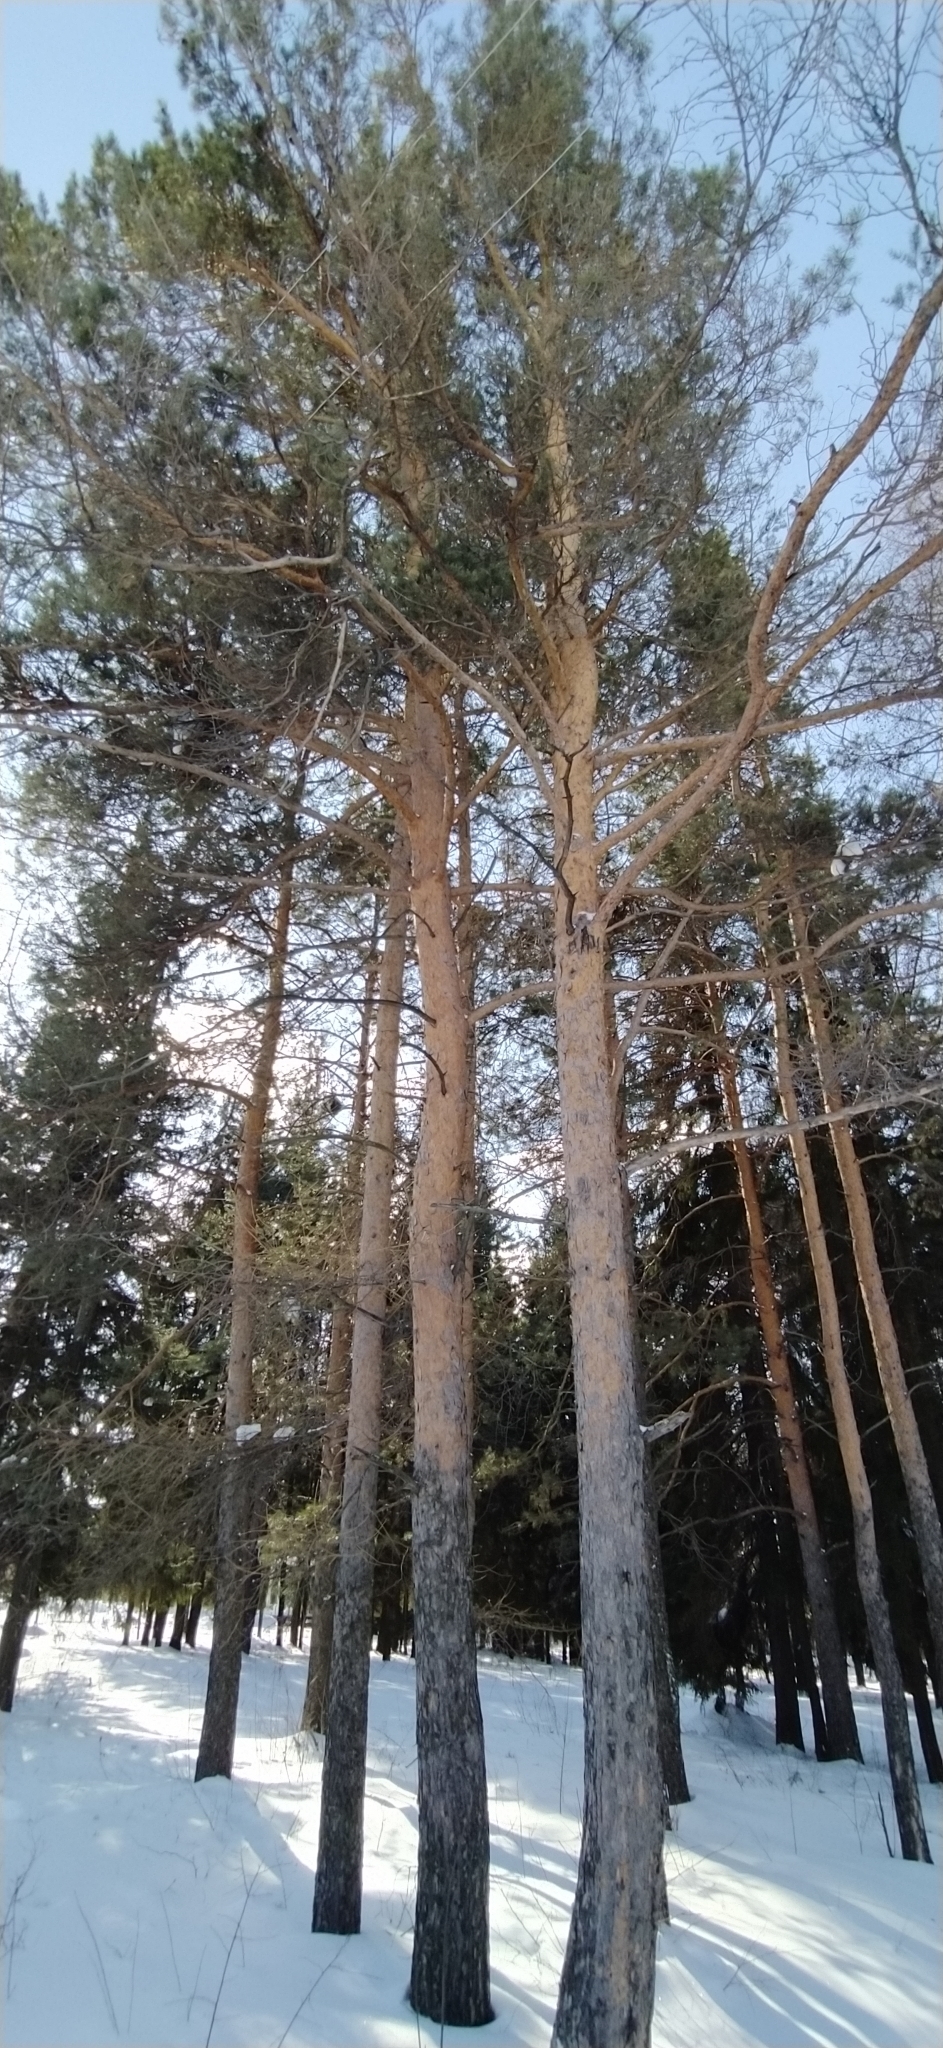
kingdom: Plantae
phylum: Tracheophyta
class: Pinopsida
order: Pinales
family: Pinaceae
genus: Pinus
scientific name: Pinus sylvestris
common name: Scots pine
